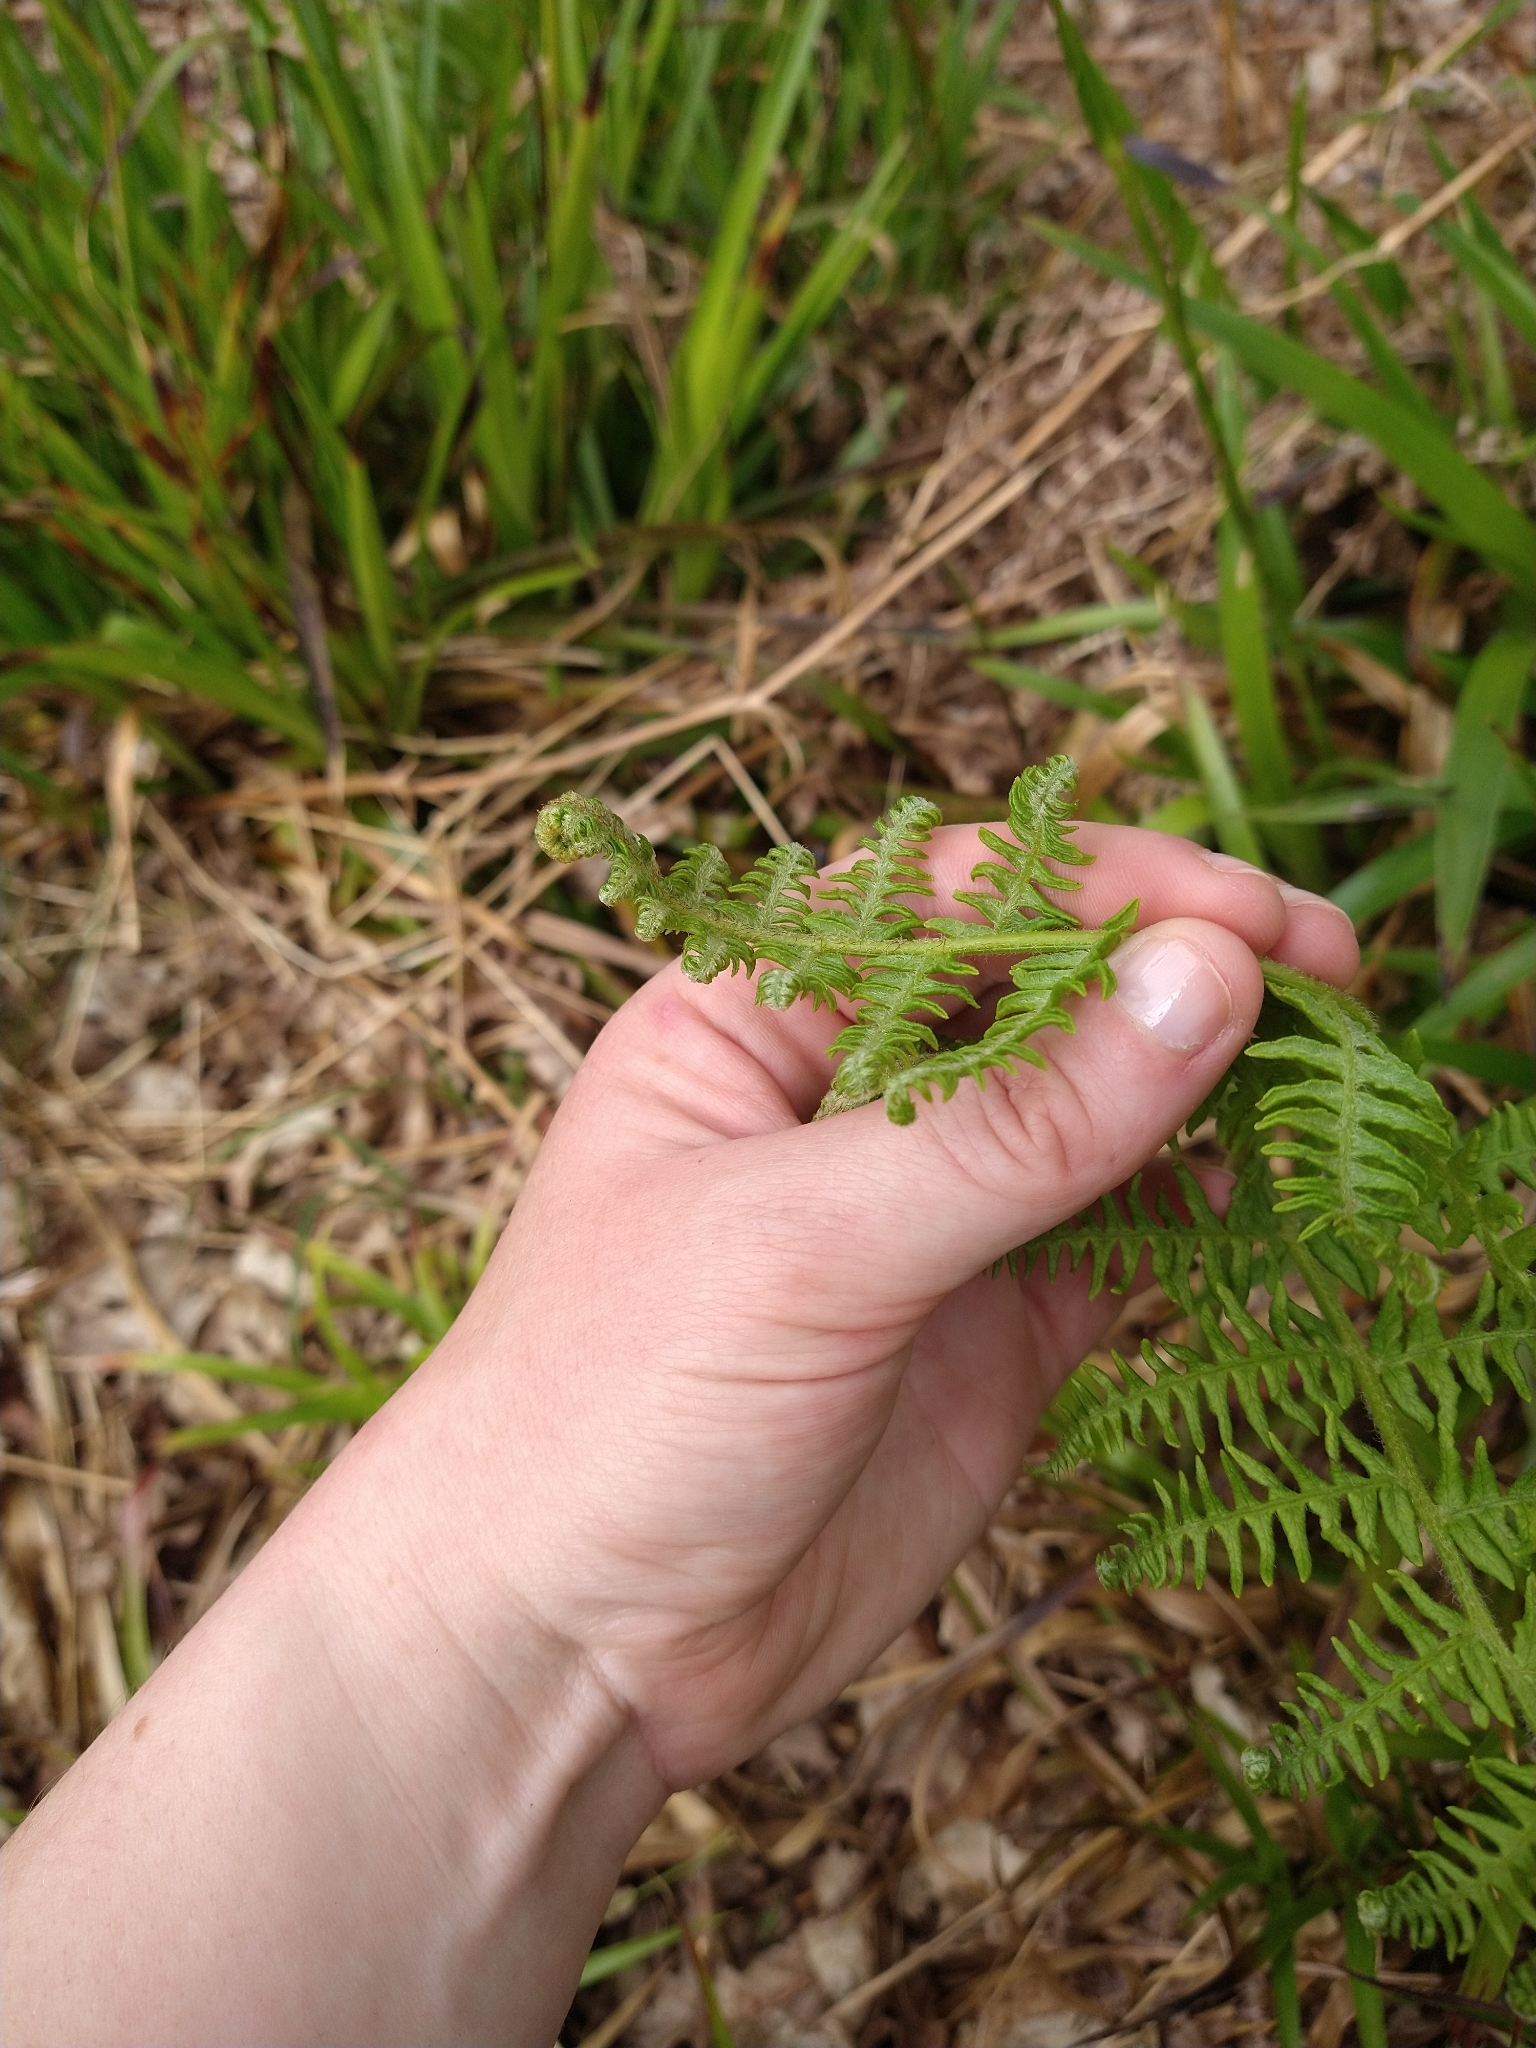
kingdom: Plantae
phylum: Tracheophyta
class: Polypodiopsida
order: Polypodiales
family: Dennstaedtiaceae
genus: Pteridium
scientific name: Pteridium aquilinum
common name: Bracken
